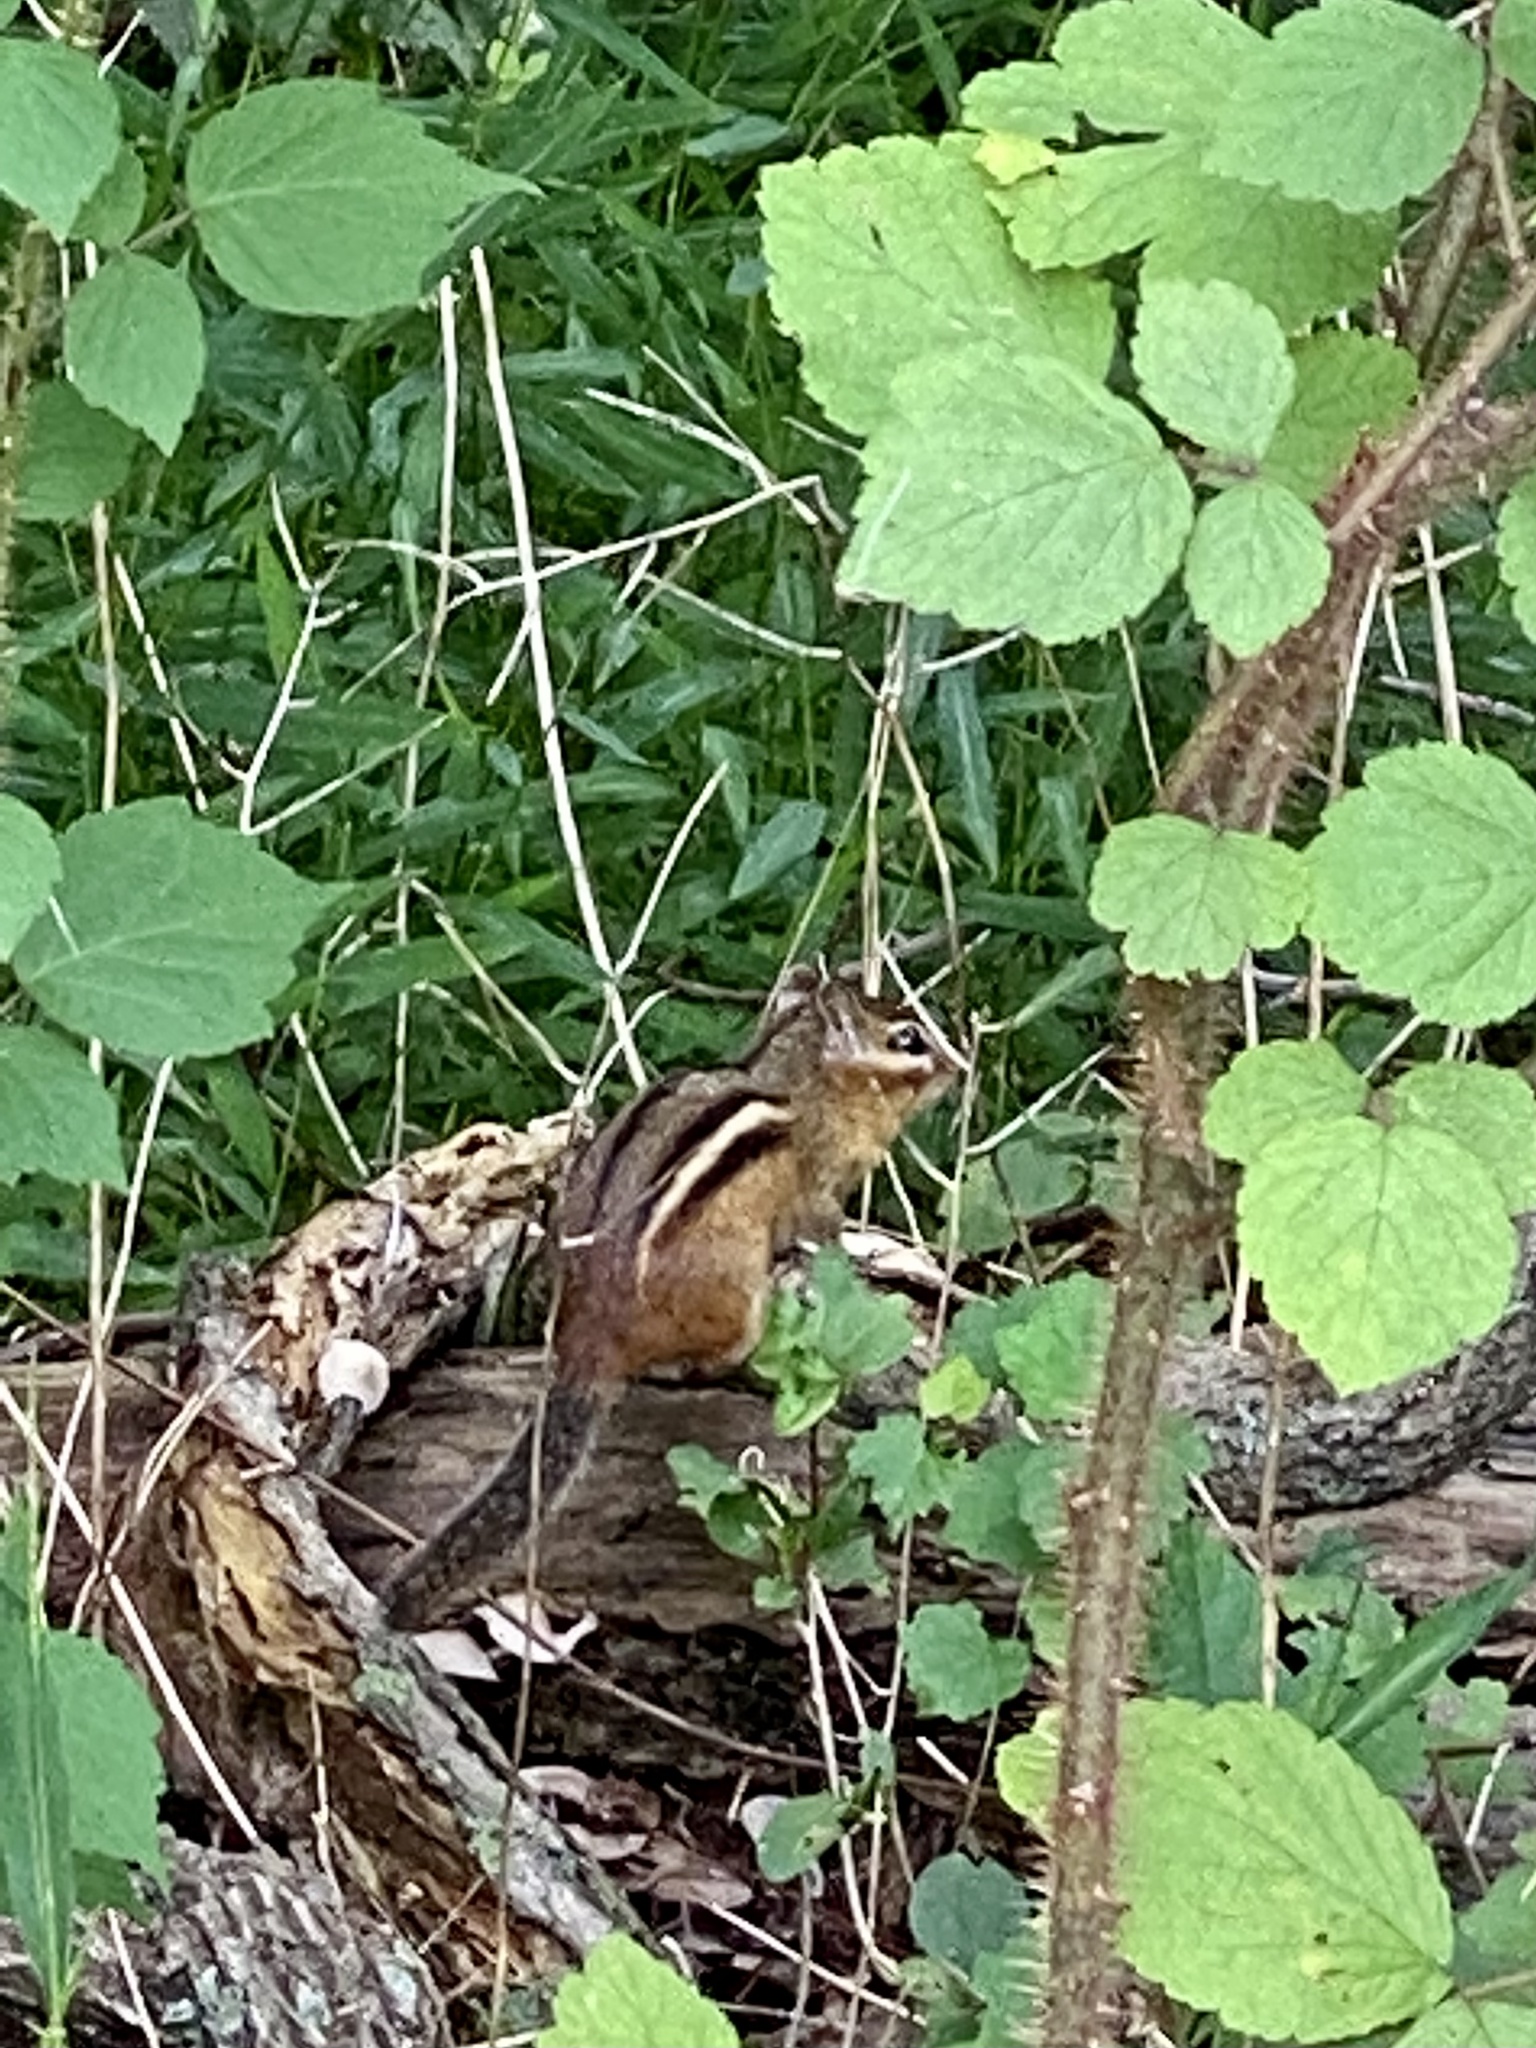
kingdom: Animalia
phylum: Chordata
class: Mammalia
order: Rodentia
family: Sciuridae
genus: Tamias
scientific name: Tamias striatus
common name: Eastern chipmunk
